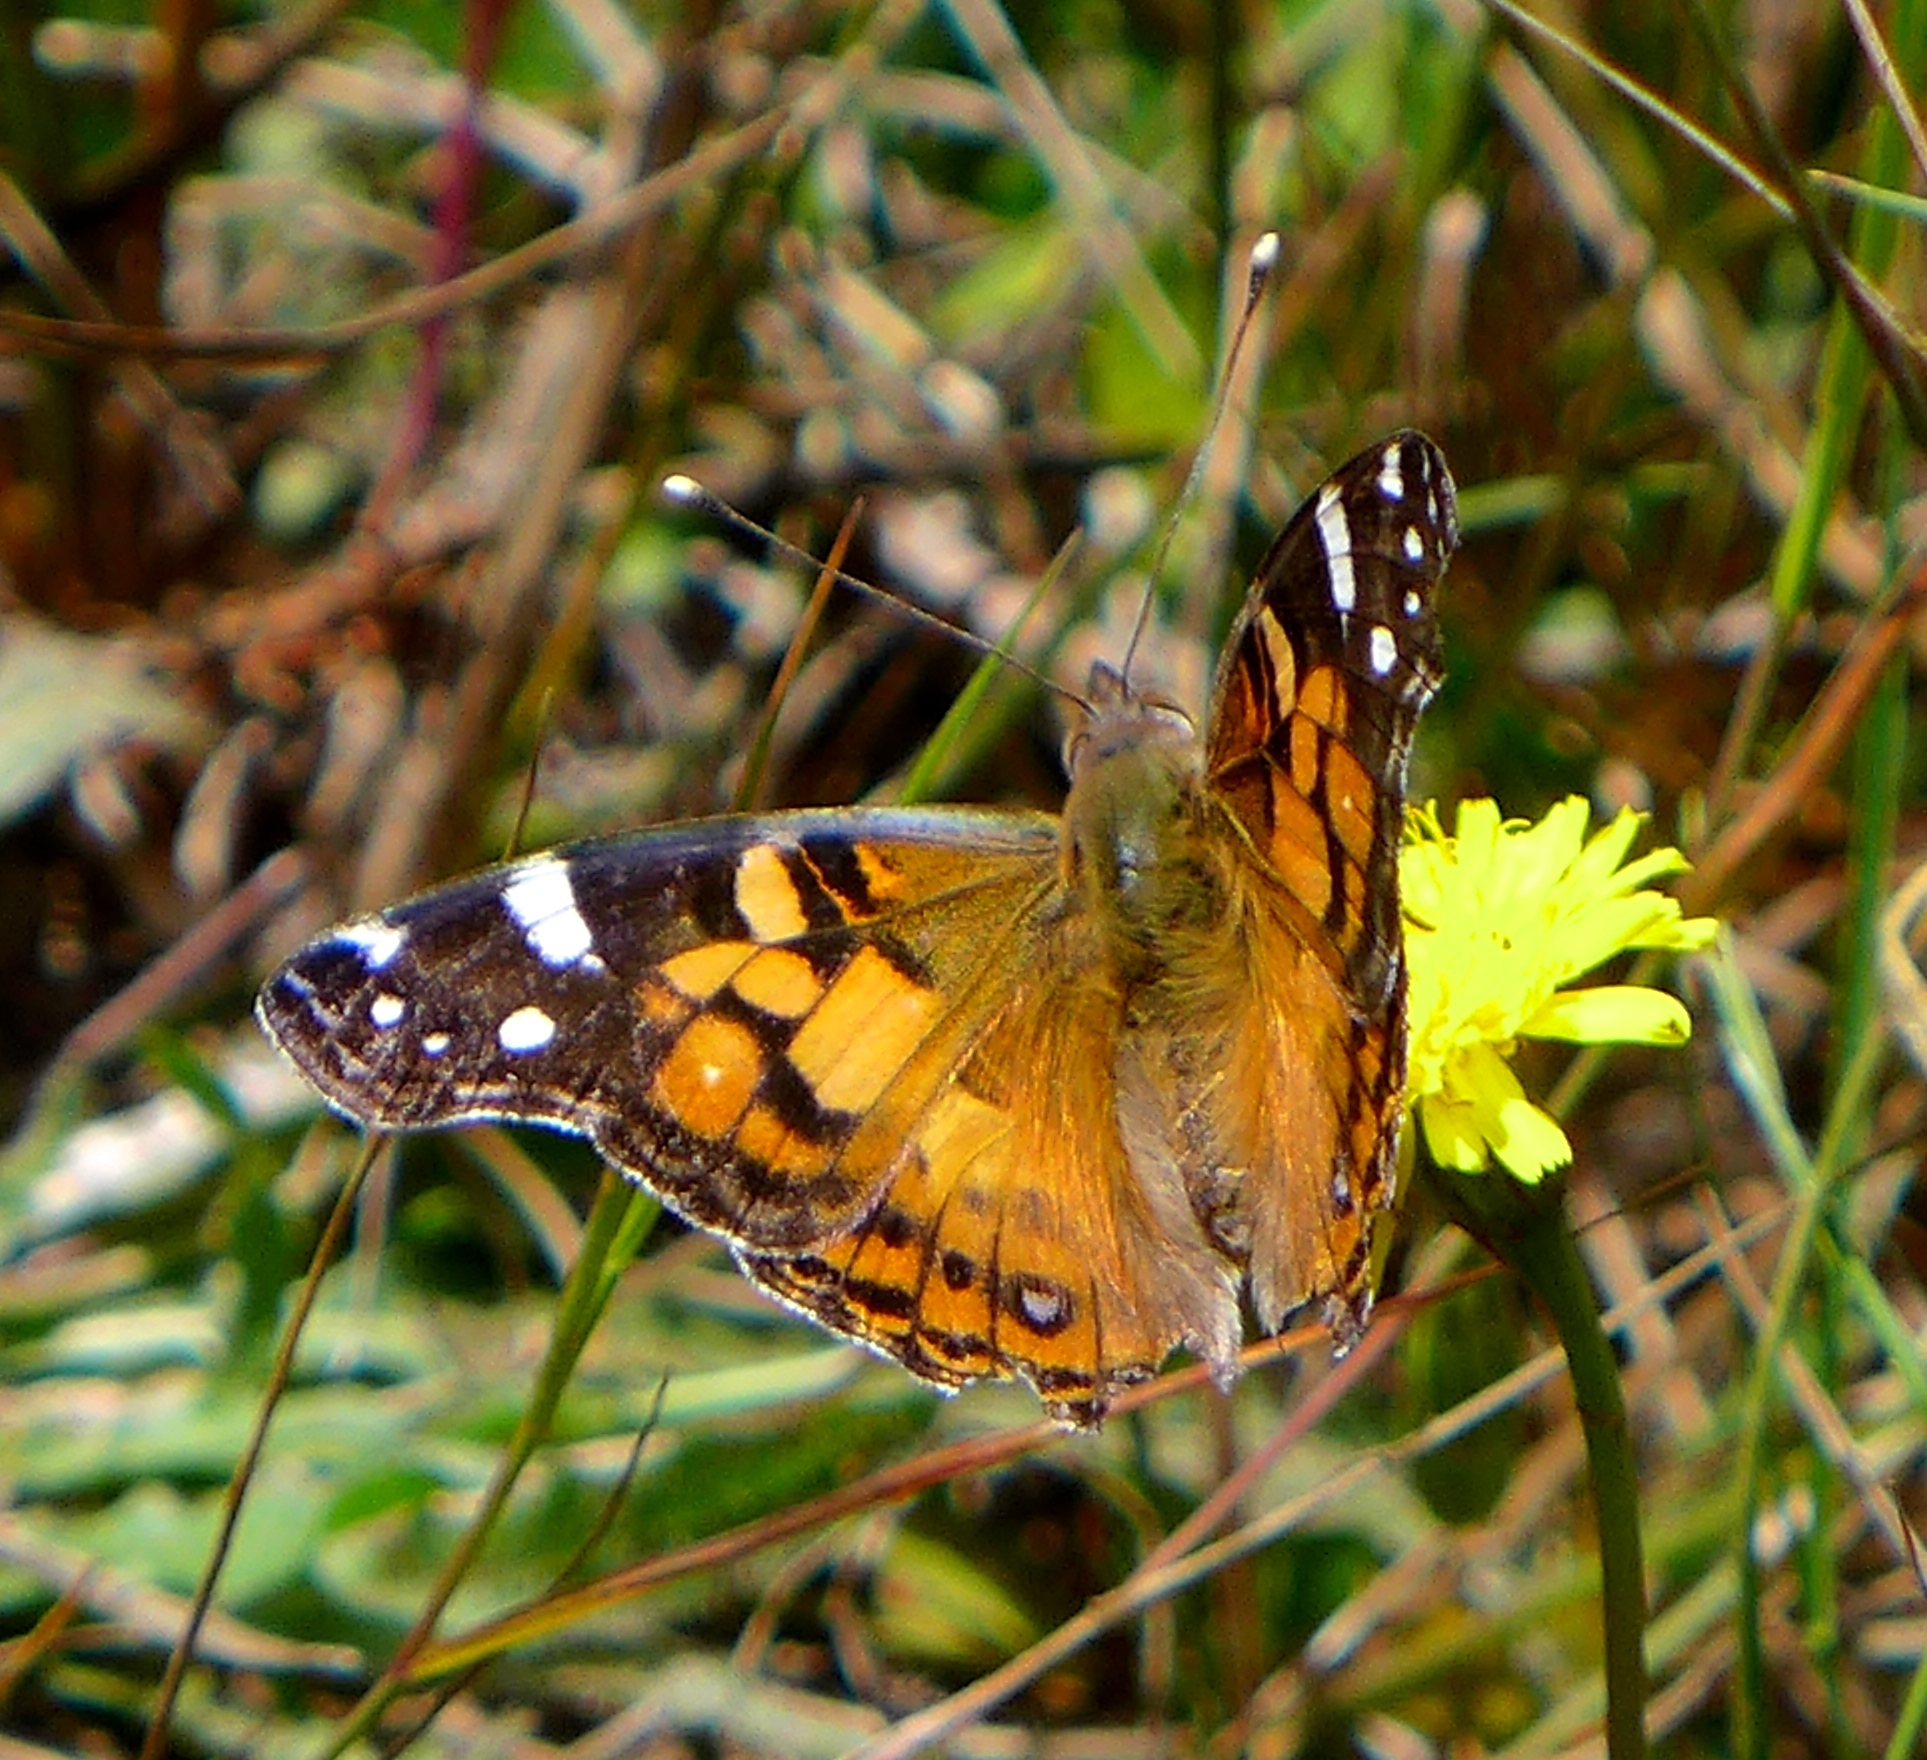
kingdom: Animalia
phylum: Arthropoda
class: Insecta
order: Lepidoptera
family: Nymphalidae
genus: Vanessa
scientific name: Vanessa virginiensis
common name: American lady
